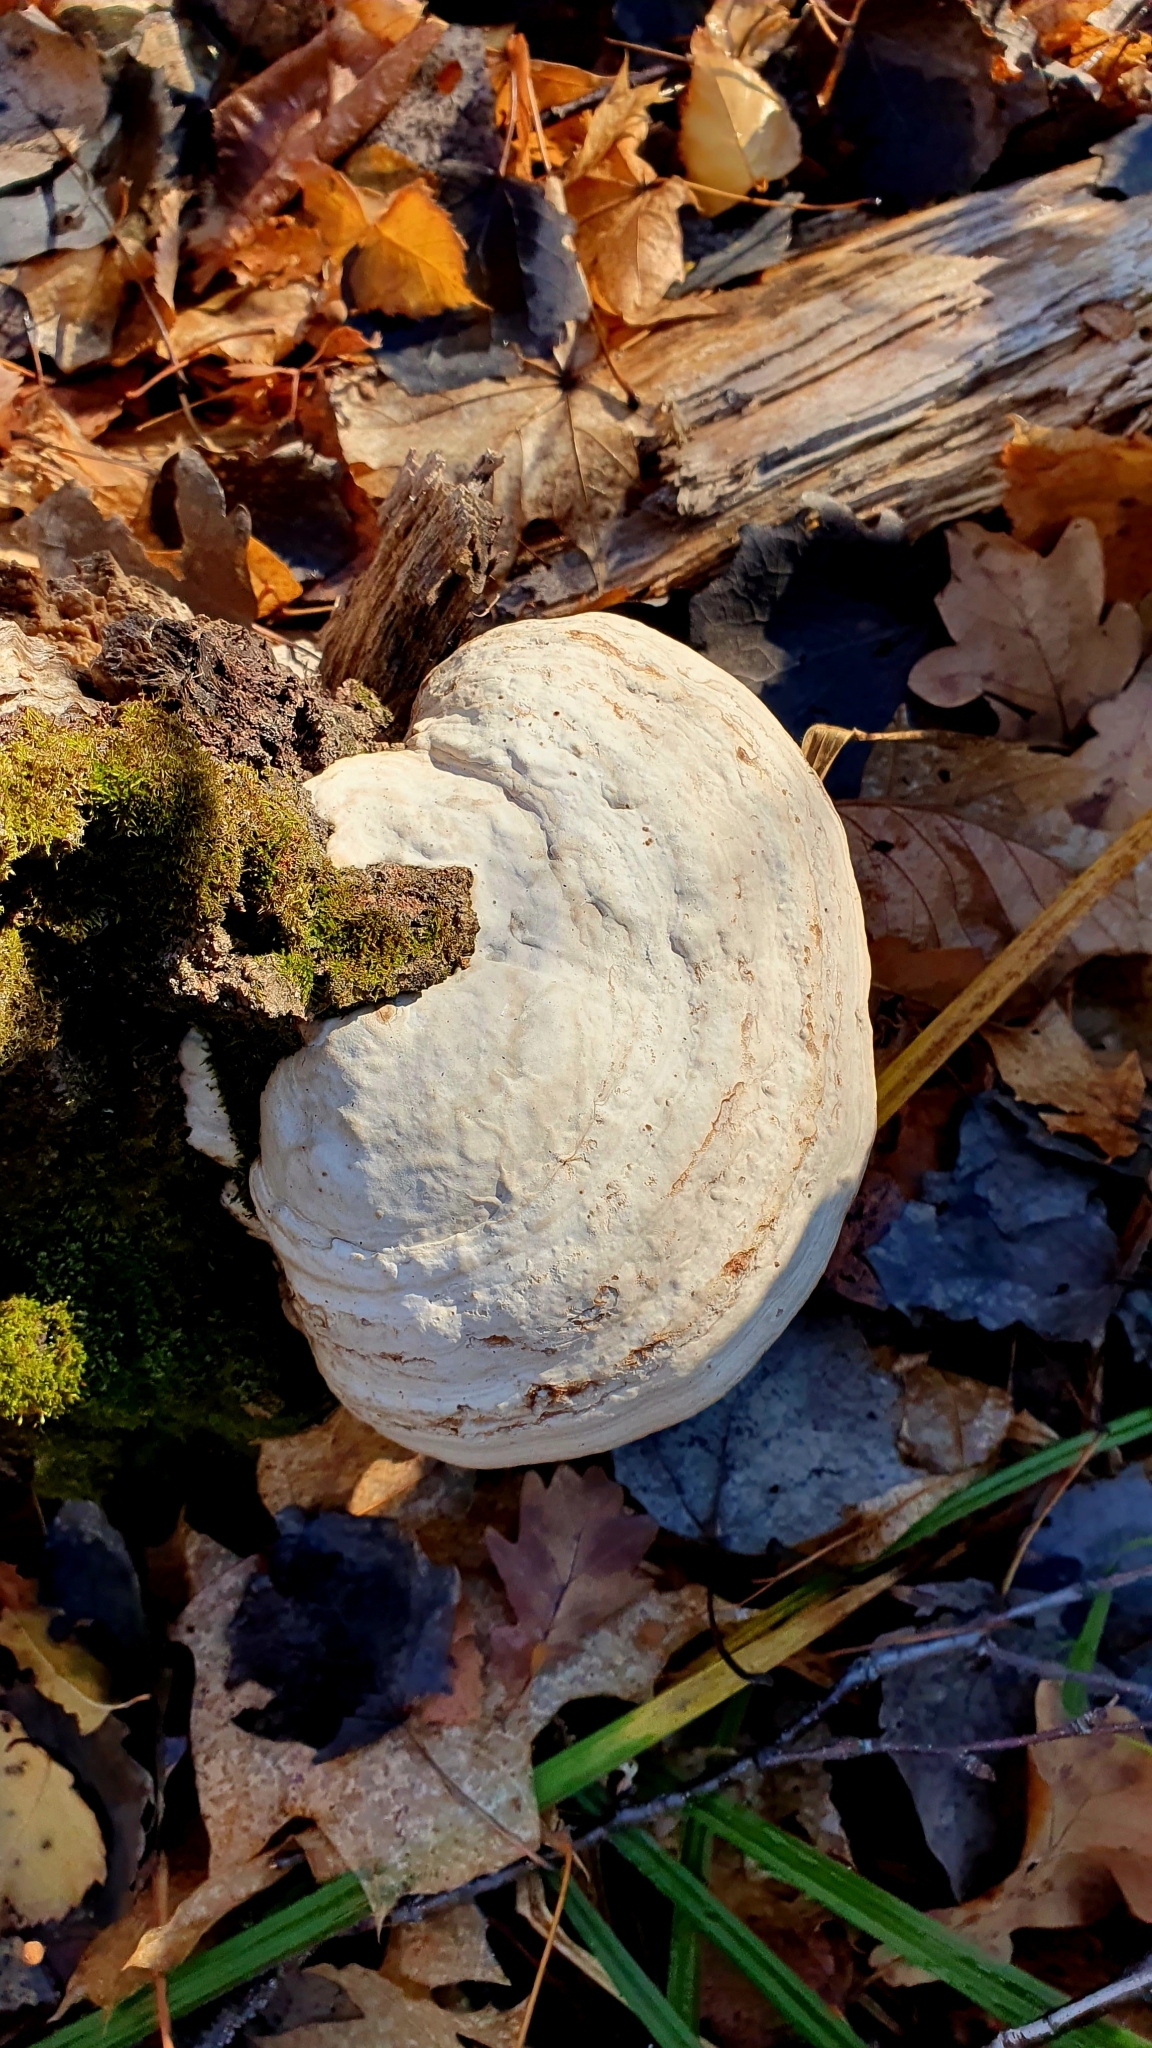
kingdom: Fungi
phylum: Basidiomycota
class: Agaricomycetes
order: Polyporales
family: Polyporaceae
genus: Fomes
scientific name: Fomes fomentarius
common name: Hoof fungus
